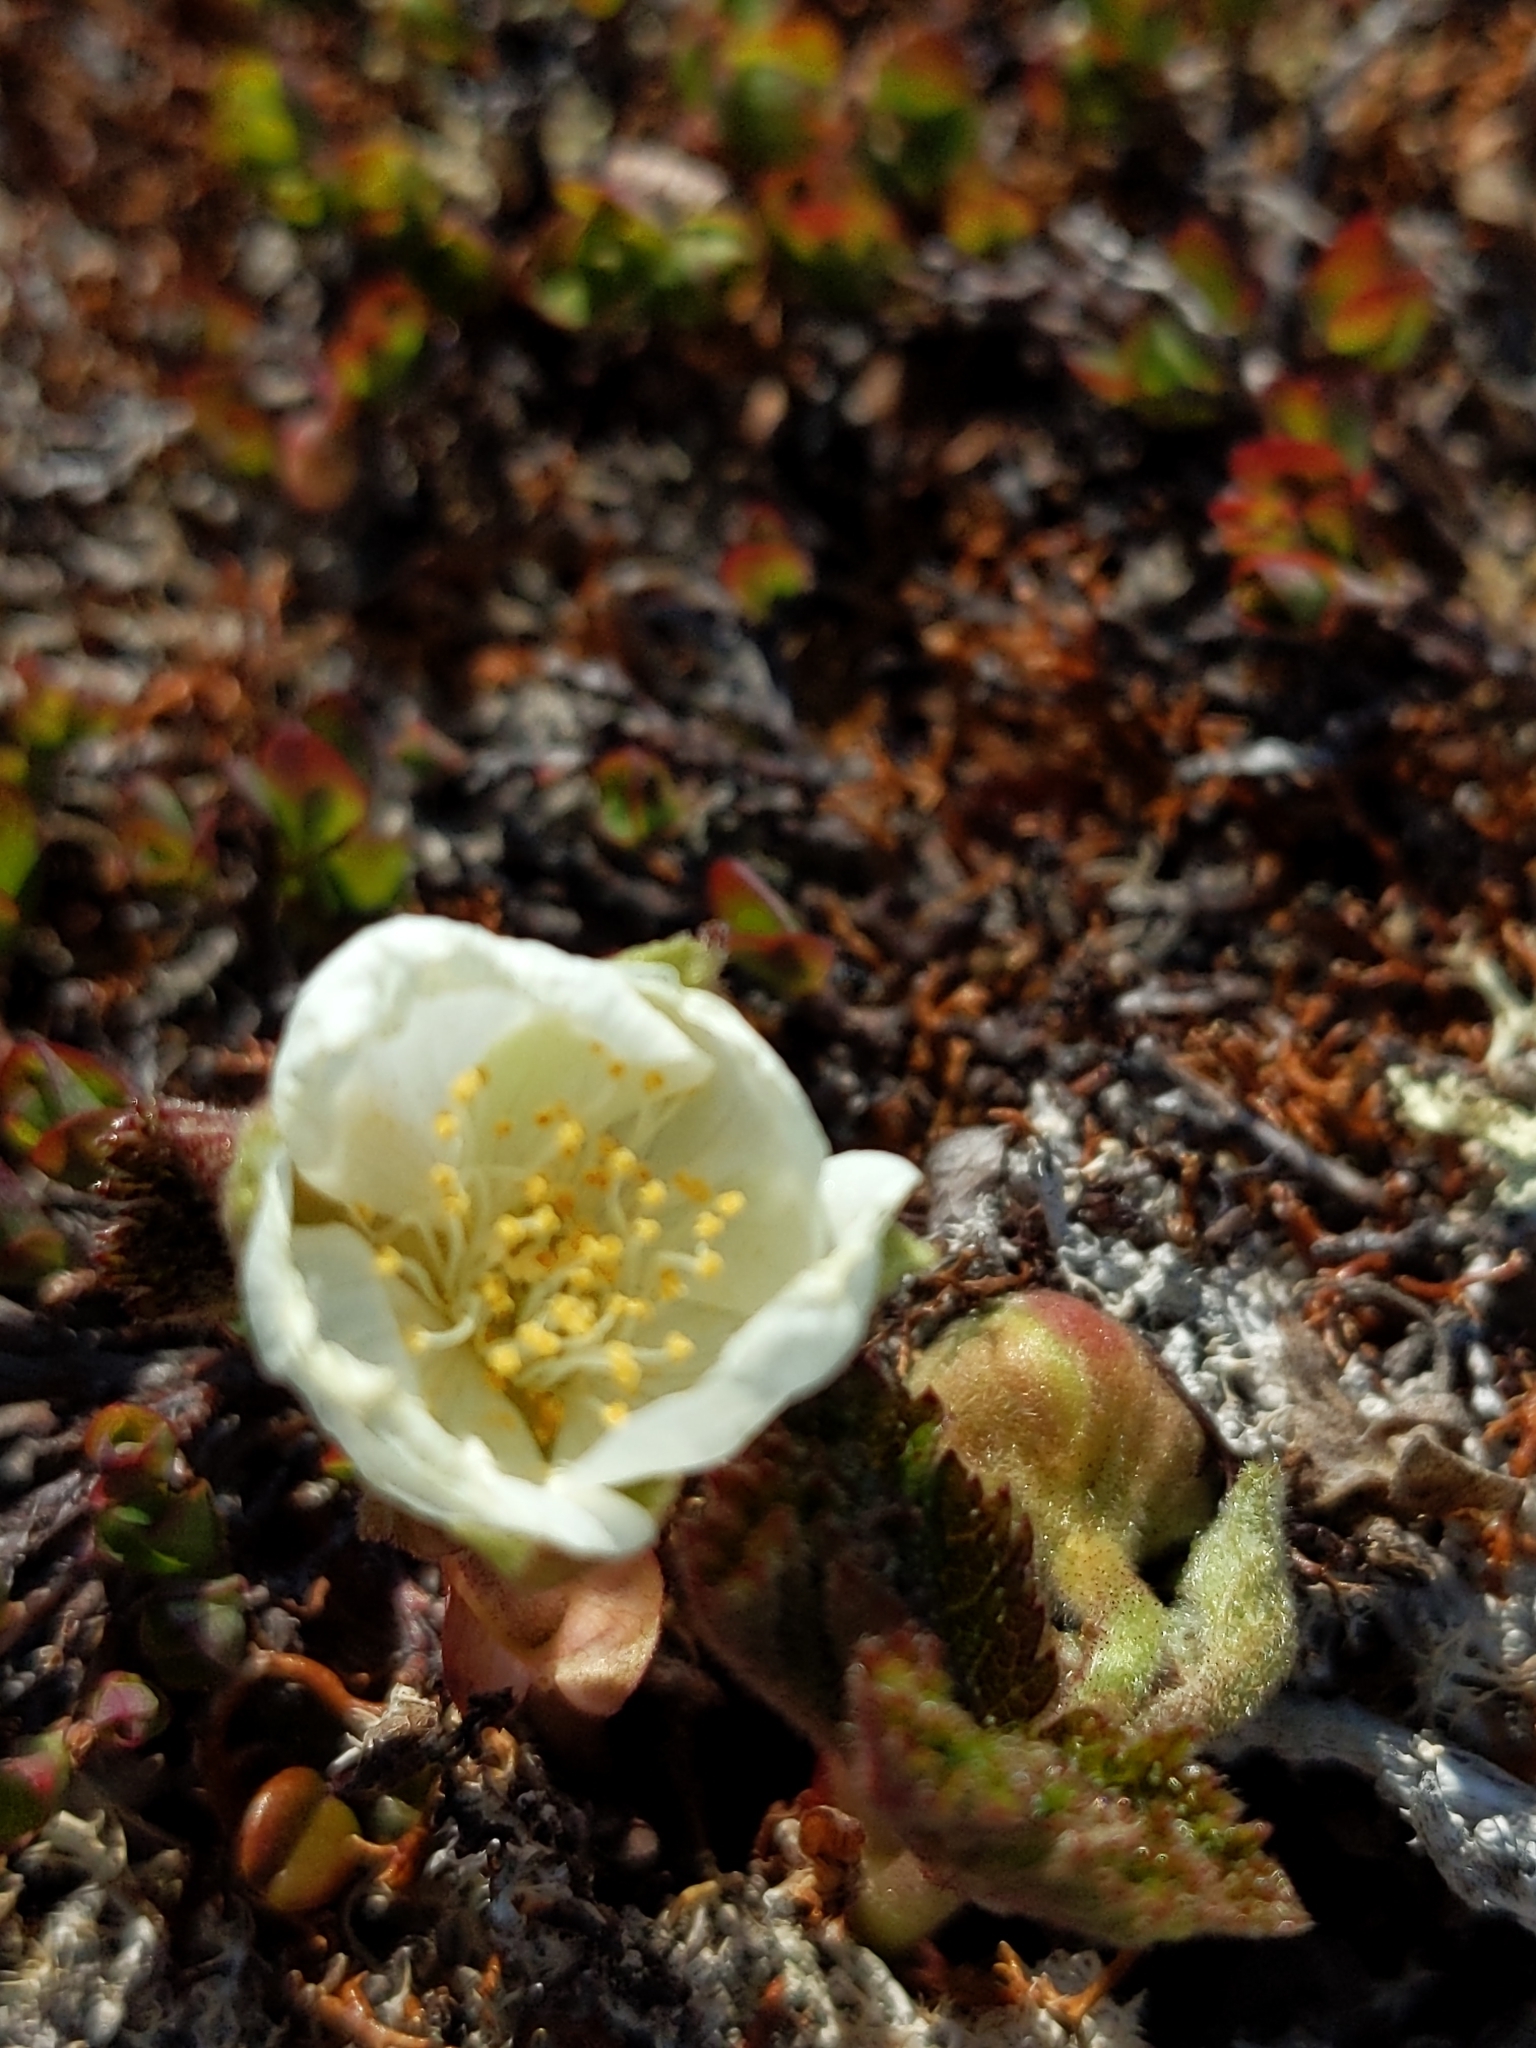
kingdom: Plantae
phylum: Tracheophyta
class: Magnoliopsida
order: Rosales
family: Rosaceae
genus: Rubus
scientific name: Rubus chamaemorus
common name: Cloudberry
